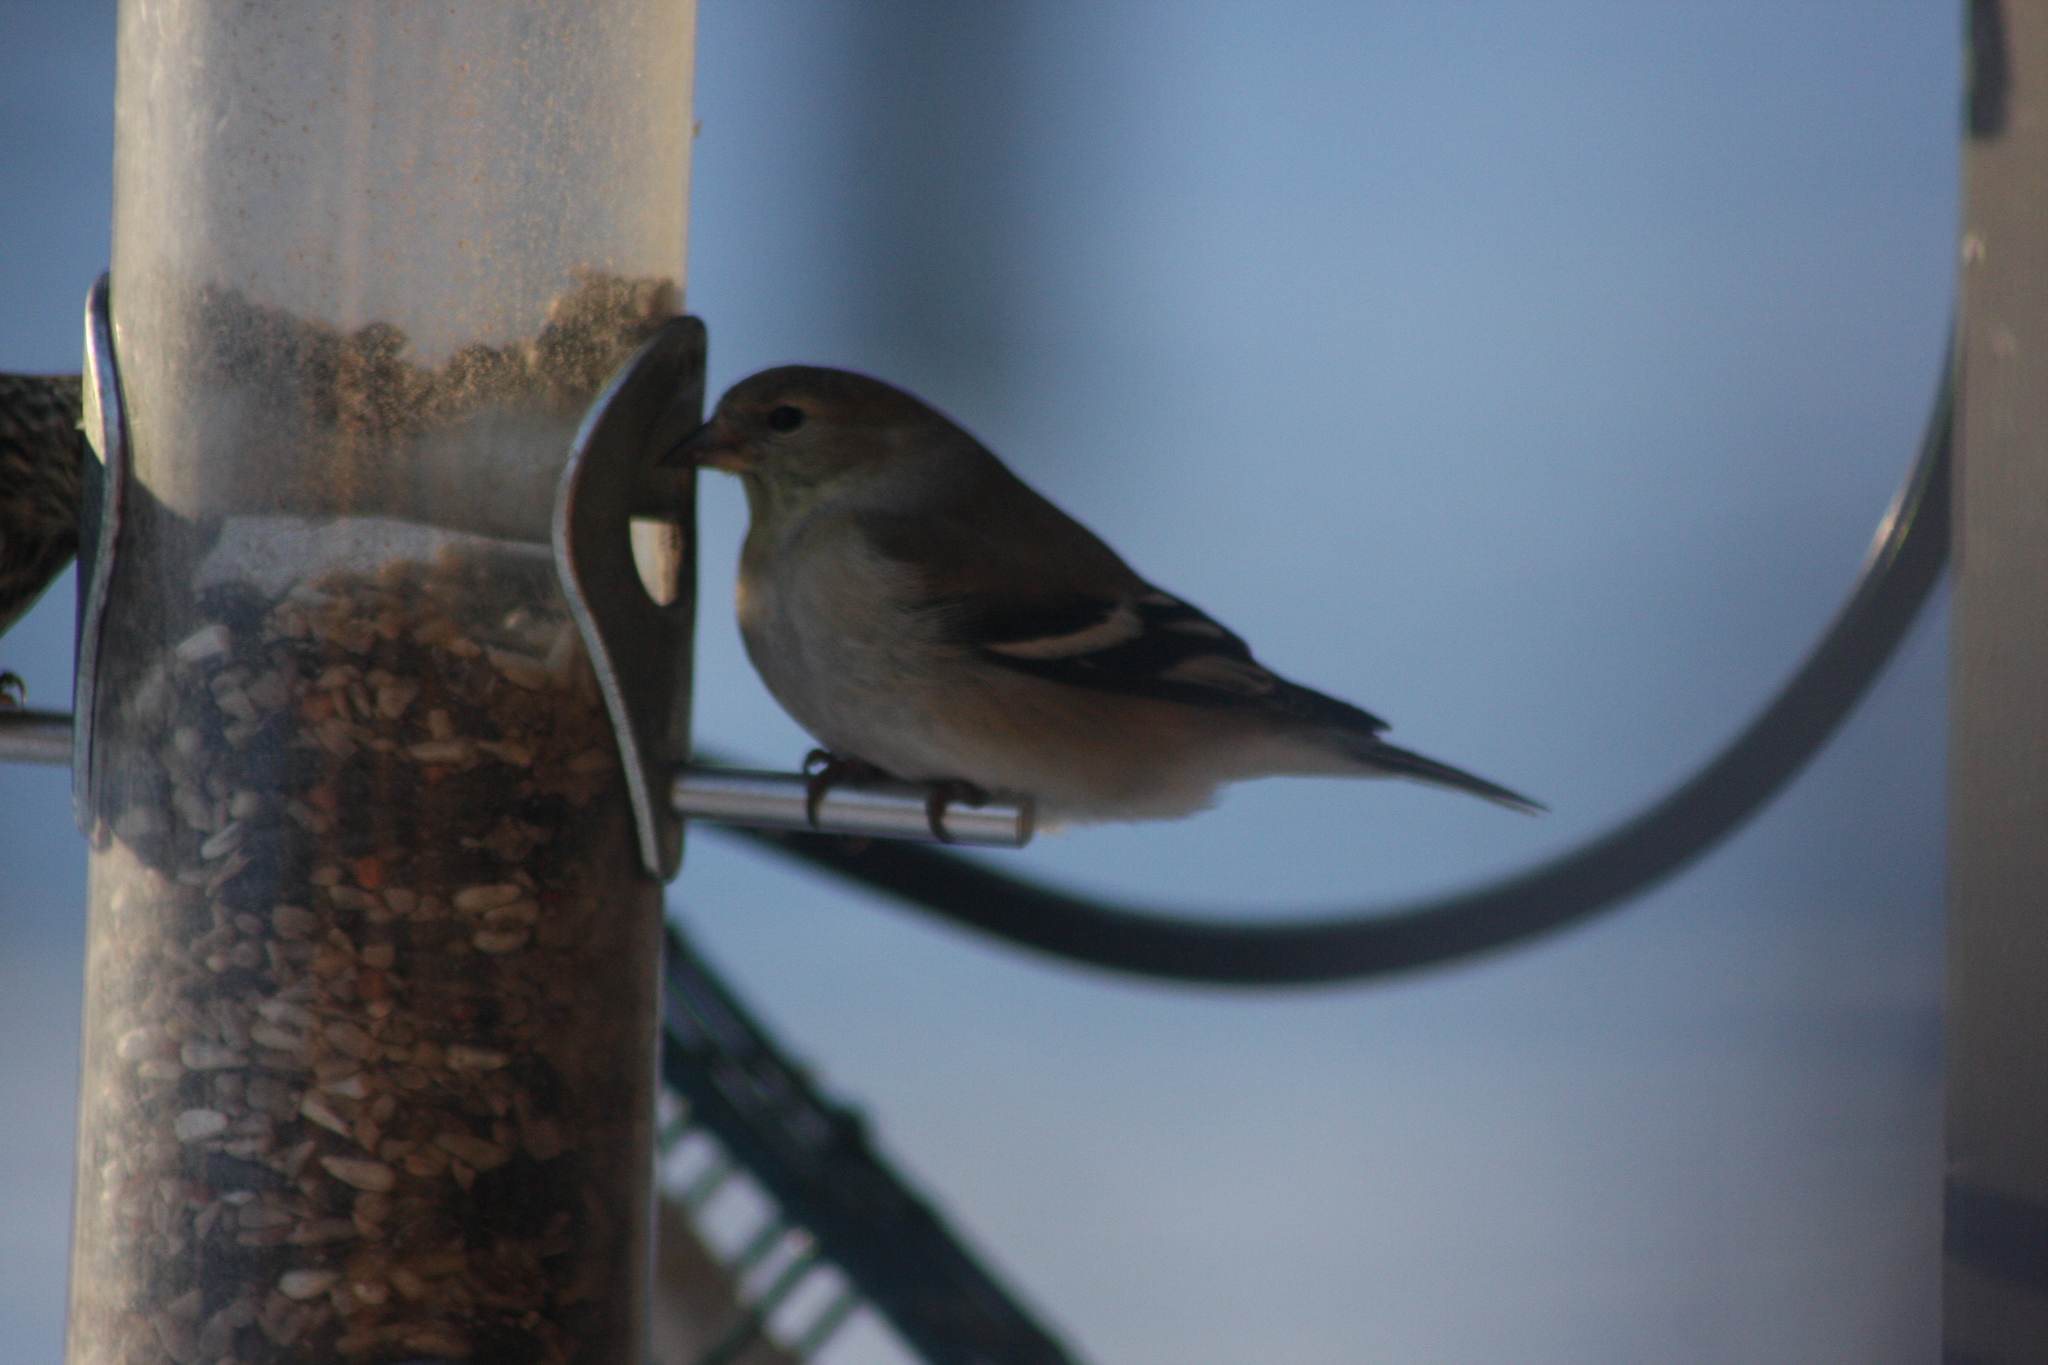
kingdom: Animalia
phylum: Chordata
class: Aves
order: Passeriformes
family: Fringillidae
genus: Spinus
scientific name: Spinus tristis
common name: American goldfinch
